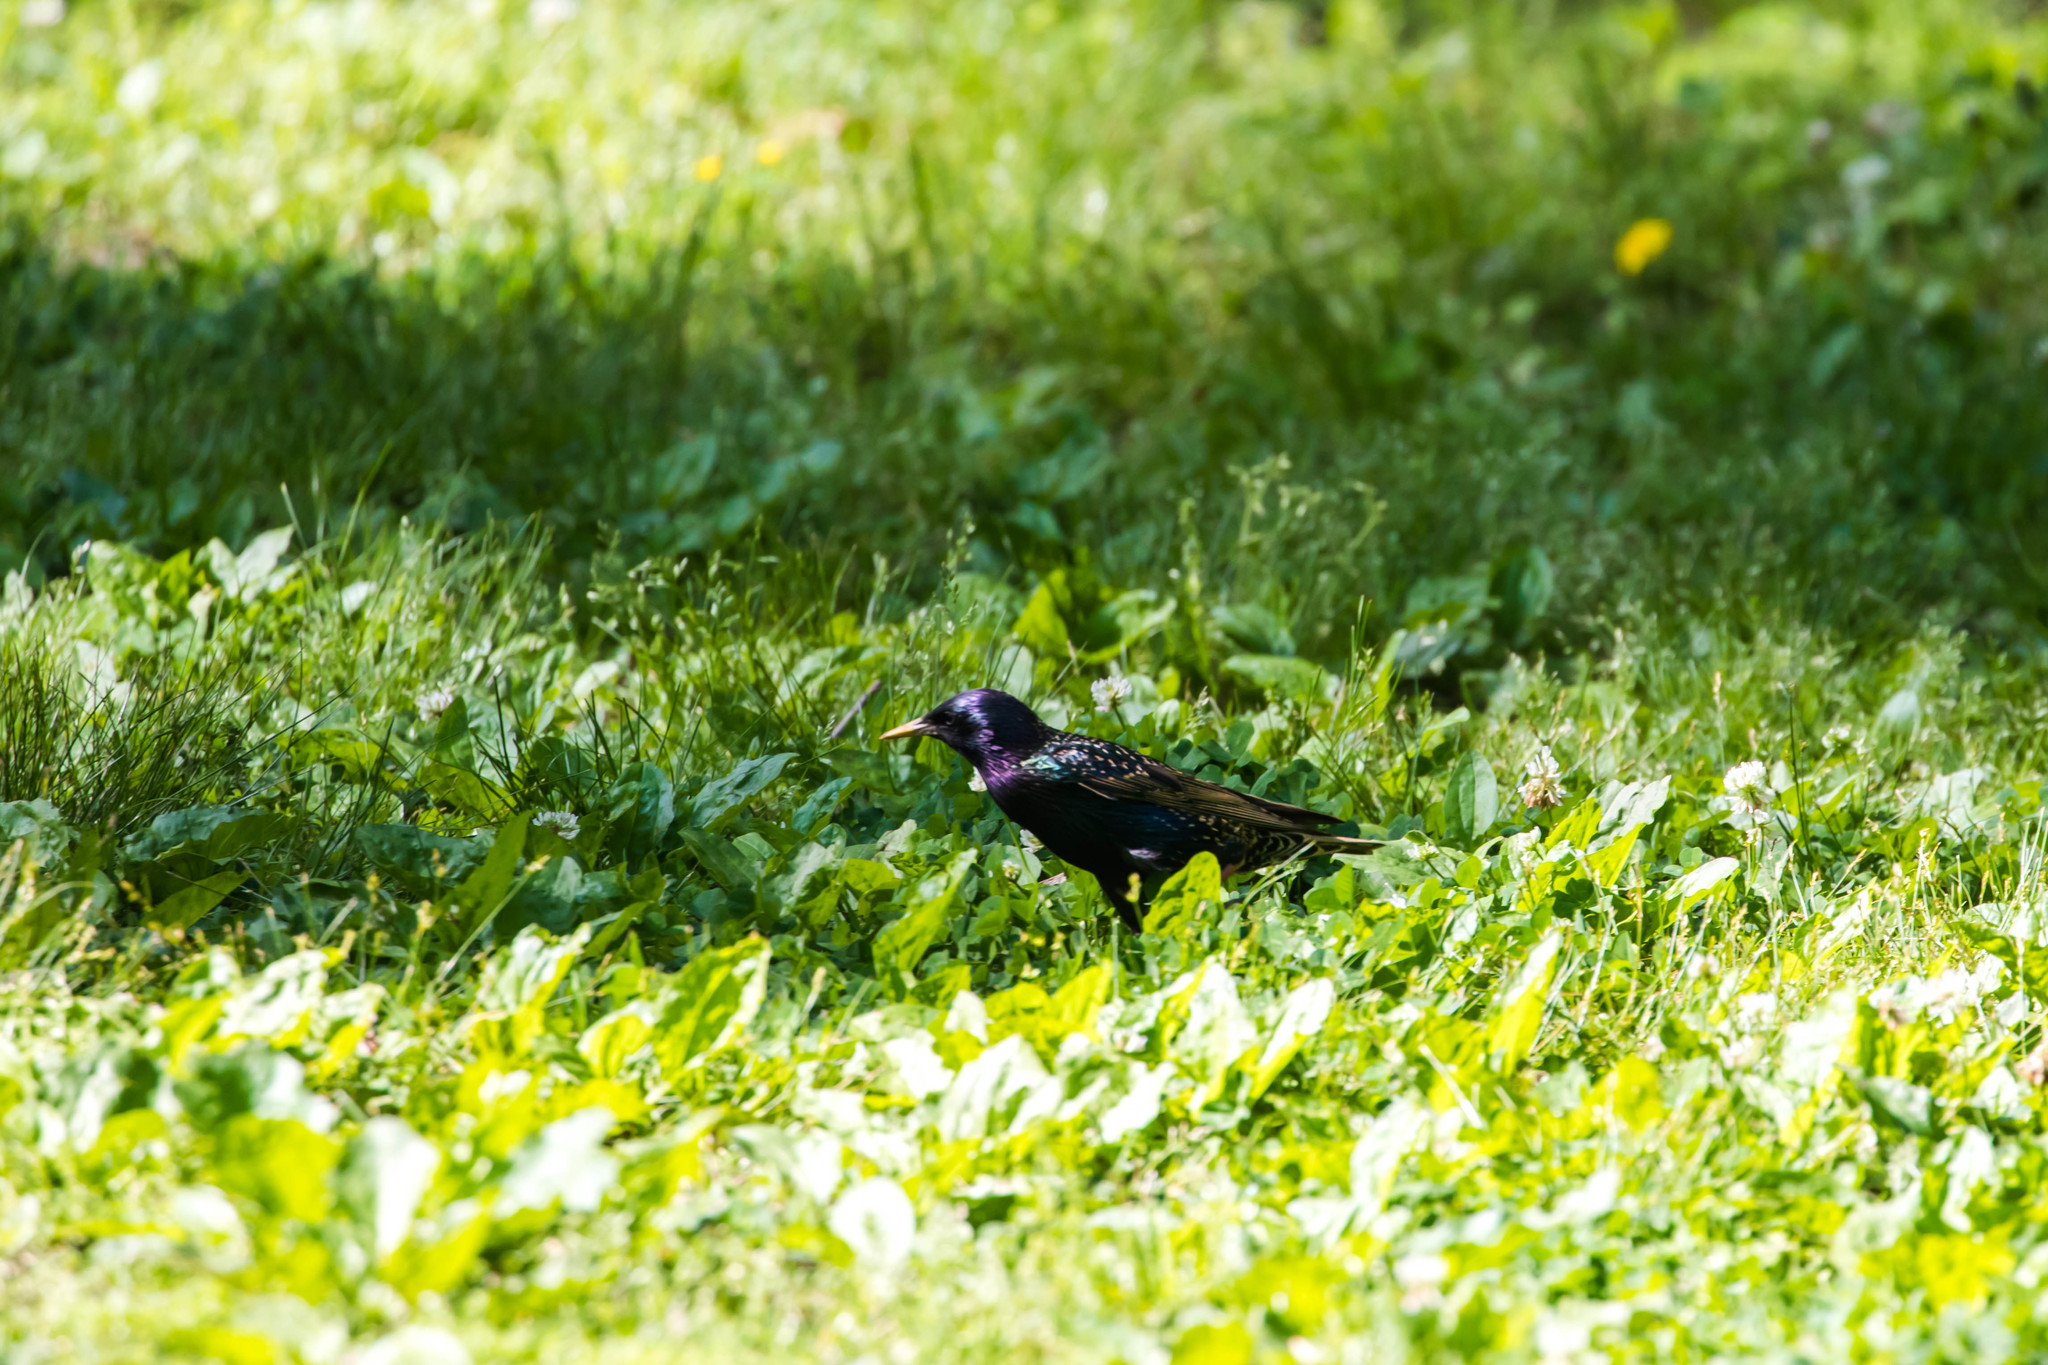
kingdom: Animalia
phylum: Chordata
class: Aves
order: Passeriformes
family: Sturnidae
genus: Sturnus
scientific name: Sturnus vulgaris
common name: Common starling
